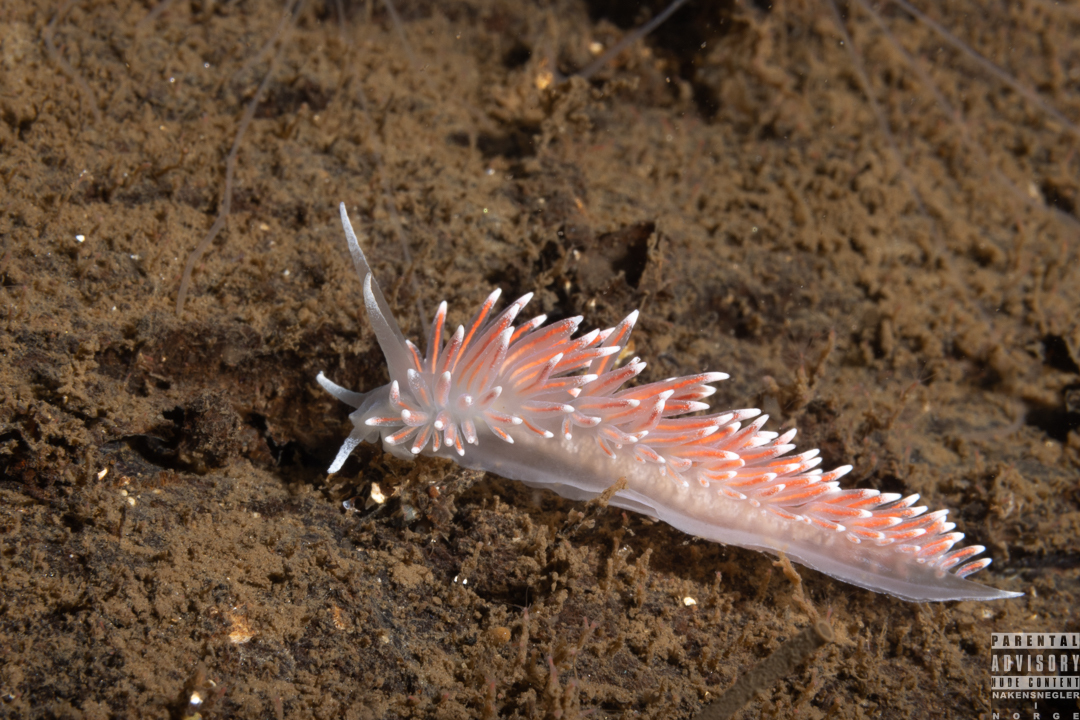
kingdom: Animalia
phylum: Mollusca
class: Gastropoda
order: Nudibranchia
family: Flabellinidae
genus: Carronella
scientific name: Carronella pellucida
